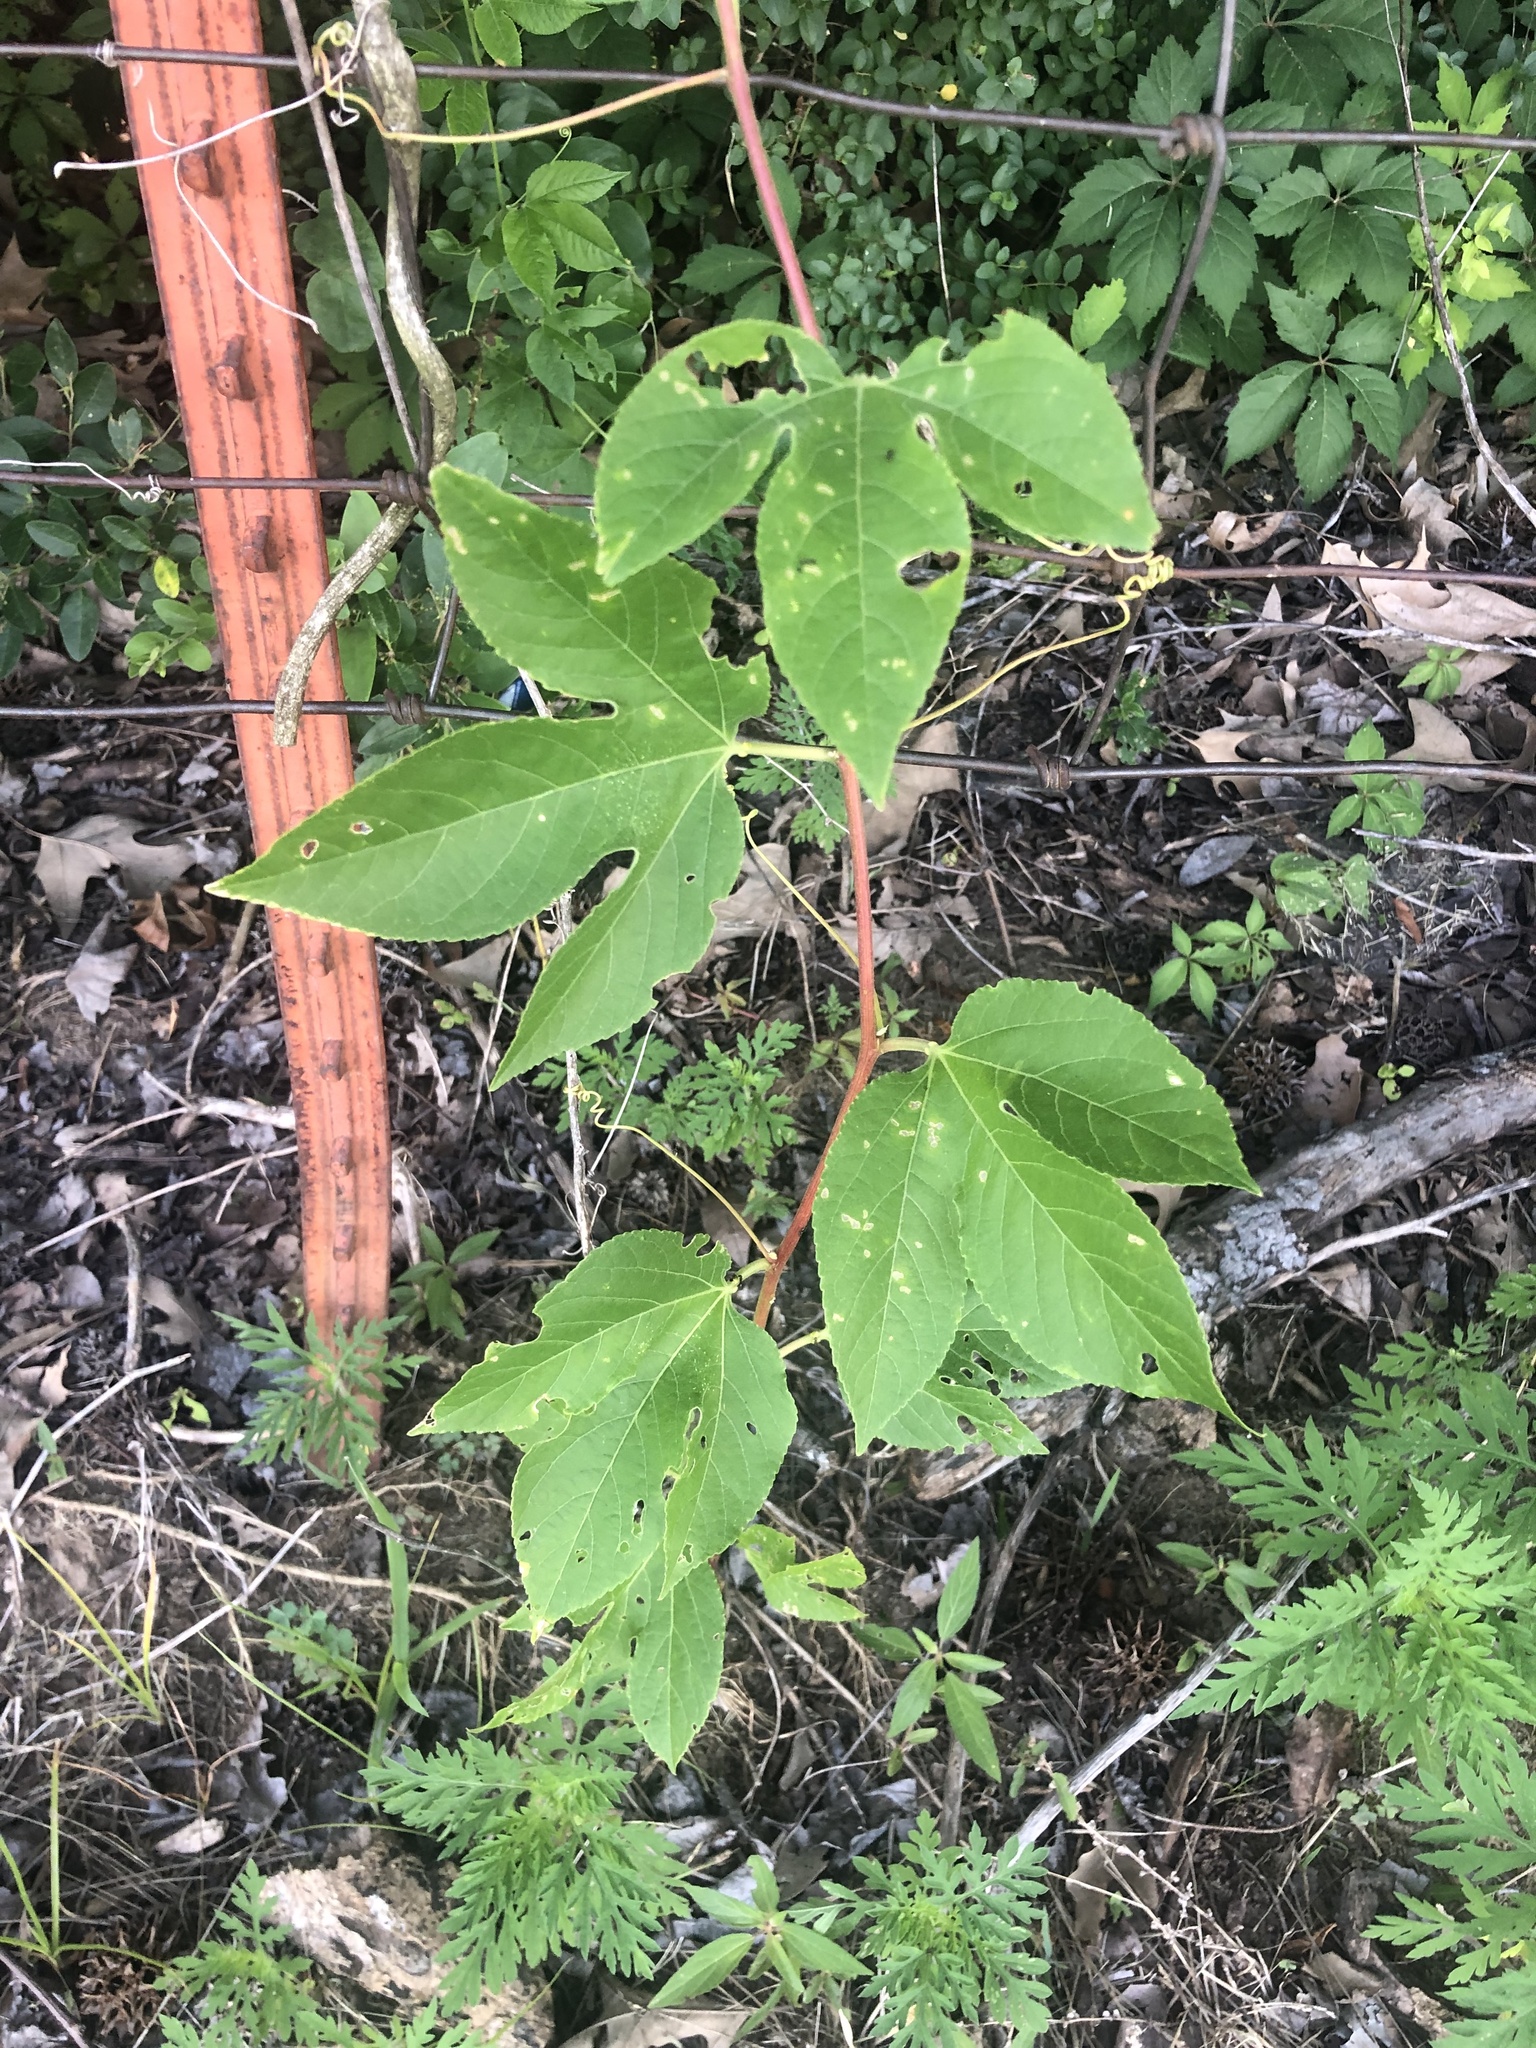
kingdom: Plantae
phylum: Tracheophyta
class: Magnoliopsida
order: Malpighiales
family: Passifloraceae
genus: Passiflora
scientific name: Passiflora incarnata
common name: Apricot-vine
